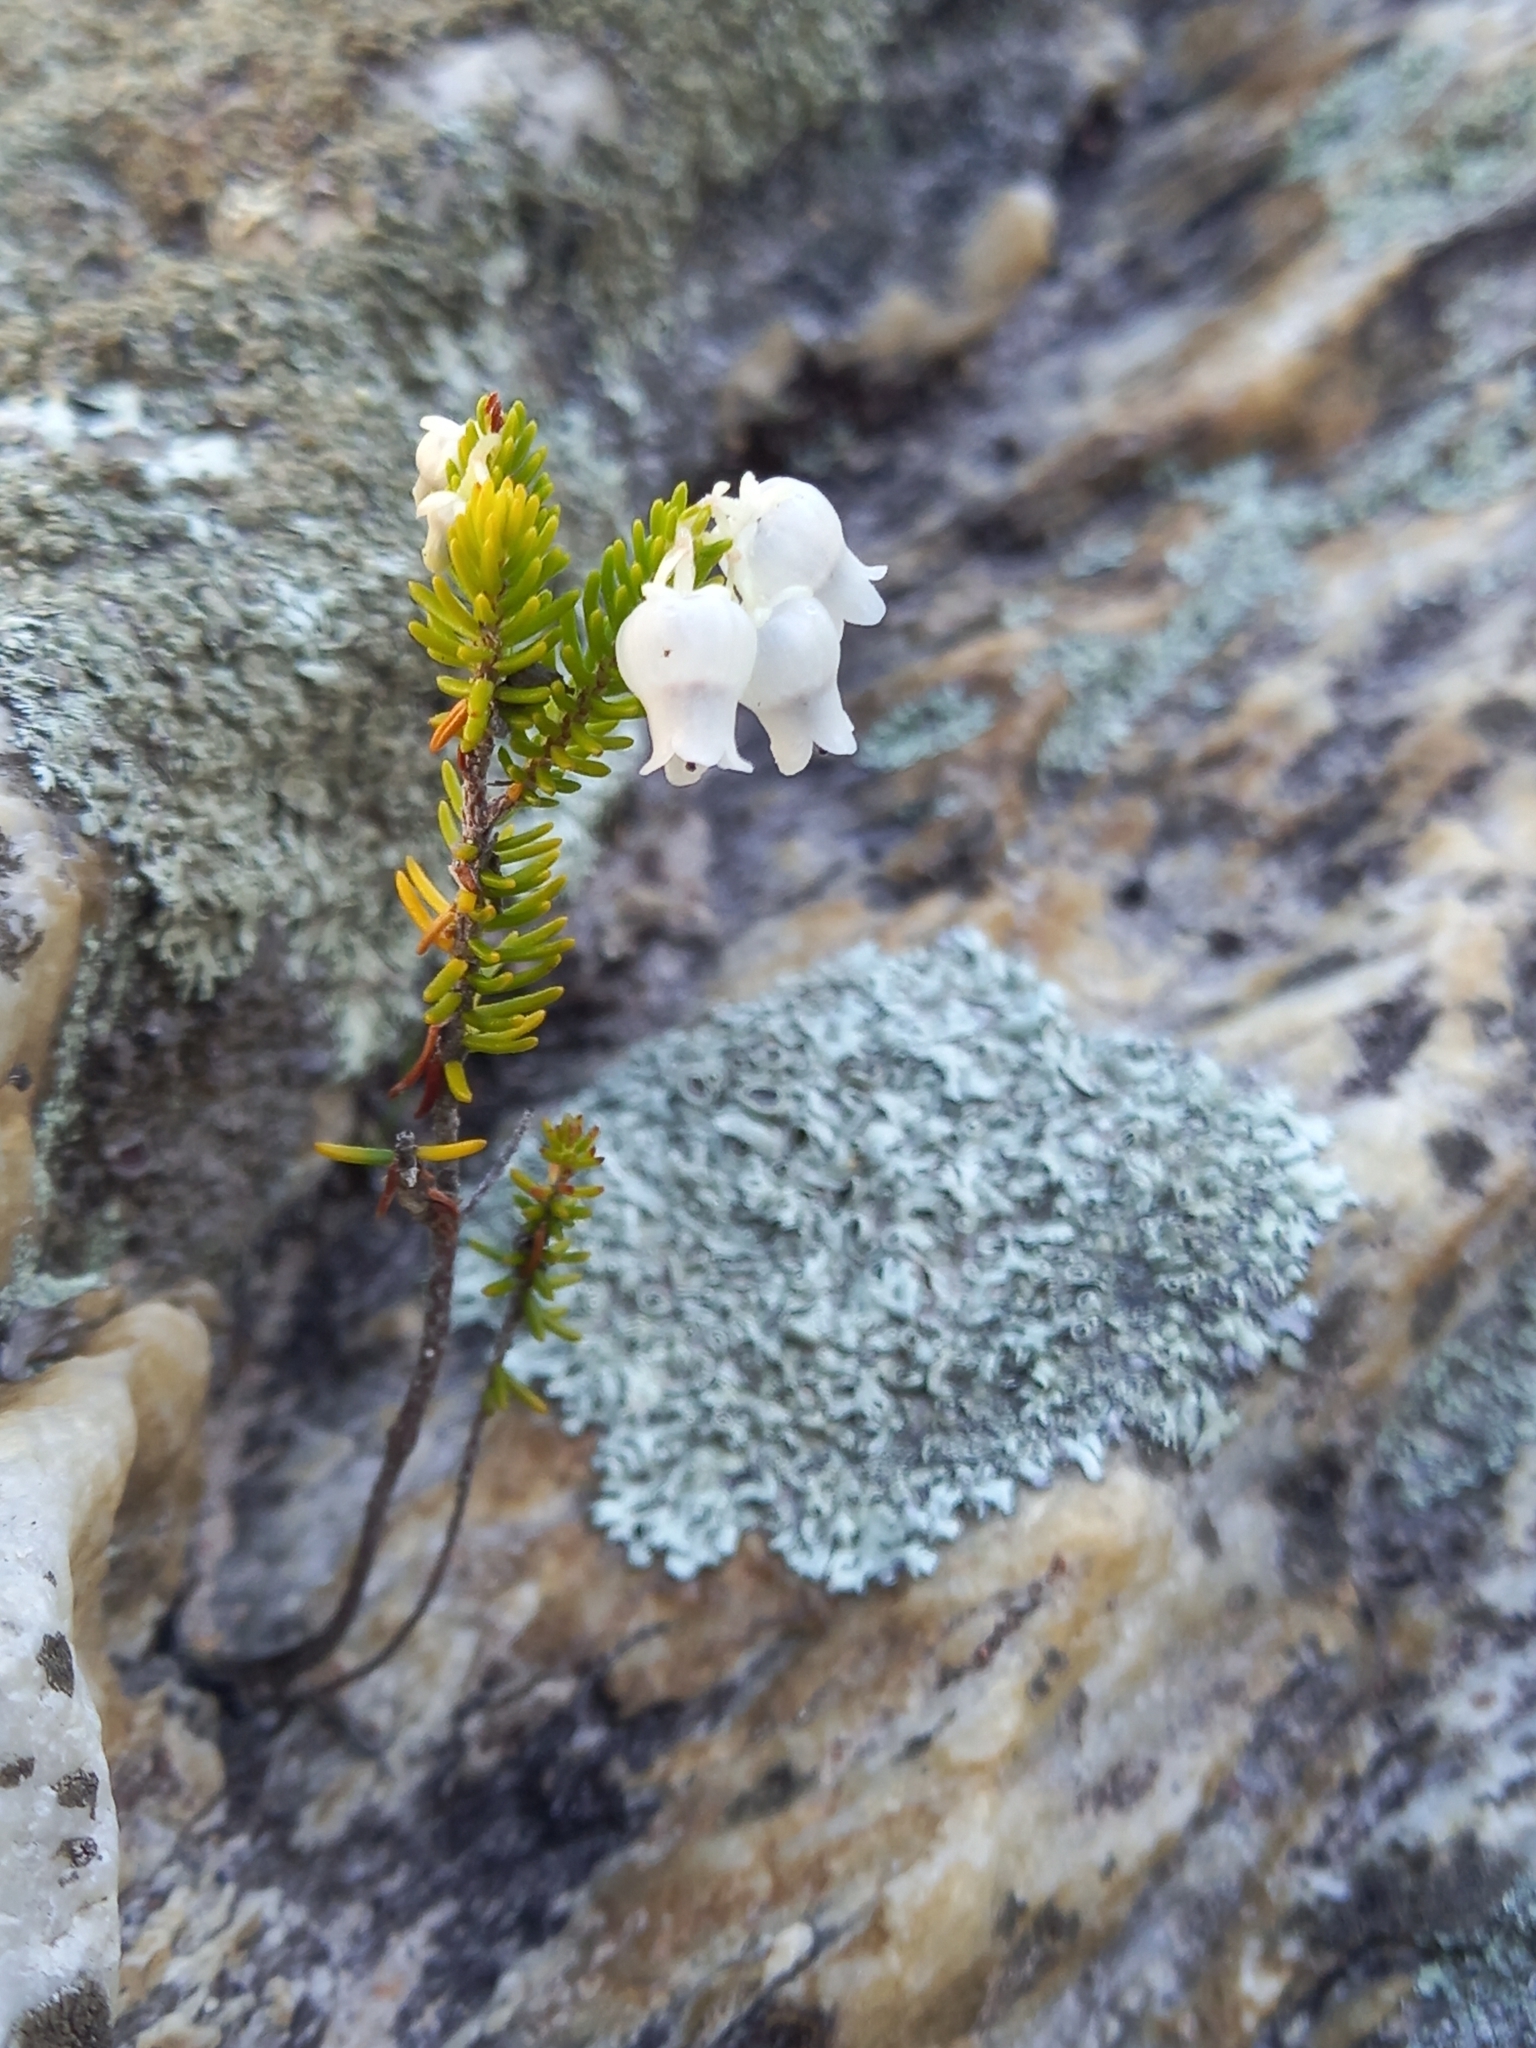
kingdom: Plantae
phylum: Tracheophyta
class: Magnoliopsida
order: Ericales
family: Ericaceae
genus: Erica
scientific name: Erica glomiflora
